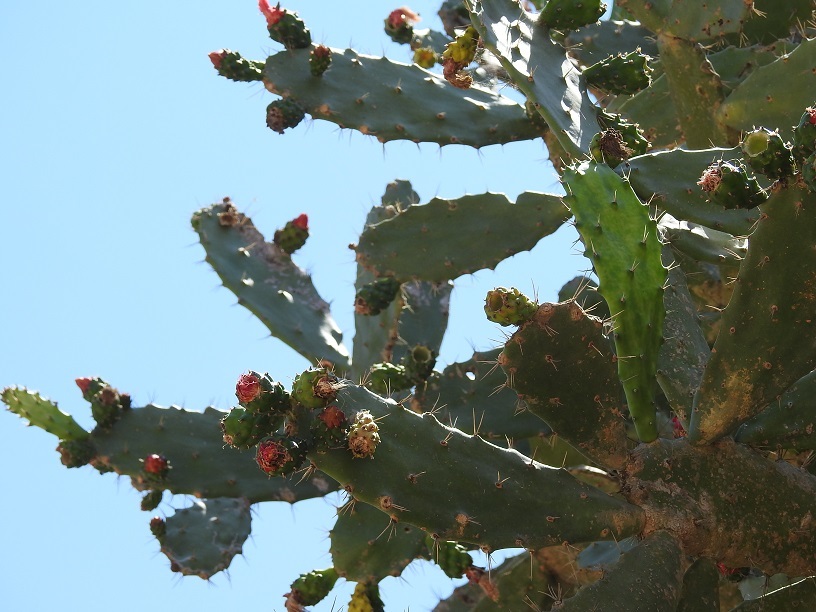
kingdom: Plantae
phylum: Tracheophyta
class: Magnoliopsida
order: Caryophyllales
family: Cactaceae
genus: Opuntia
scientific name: Opuntia dejecta
